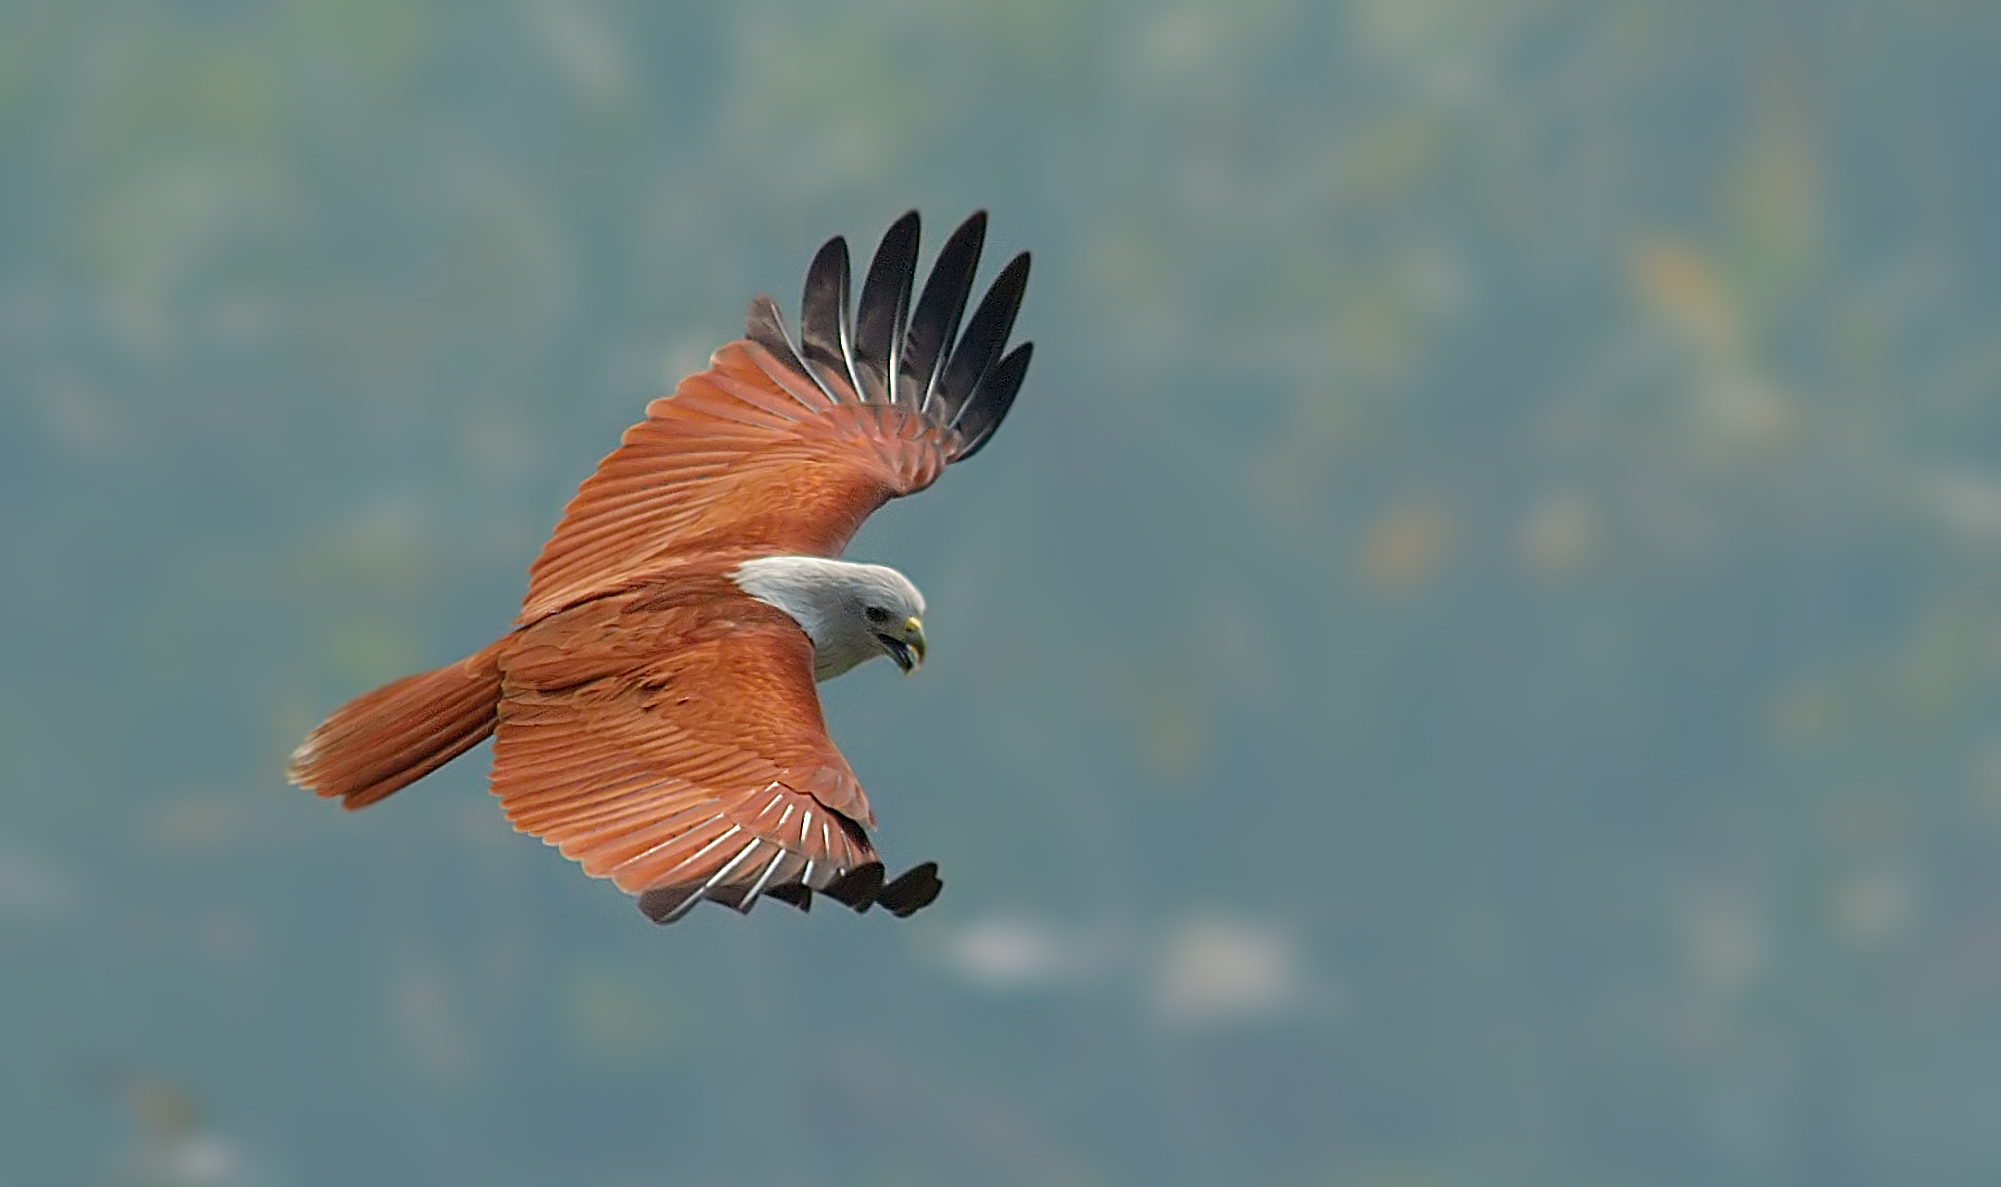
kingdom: Animalia
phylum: Chordata
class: Aves
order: Accipitriformes
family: Accipitridae
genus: Haliastur
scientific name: Haliastur indus
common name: Brahminy kite
